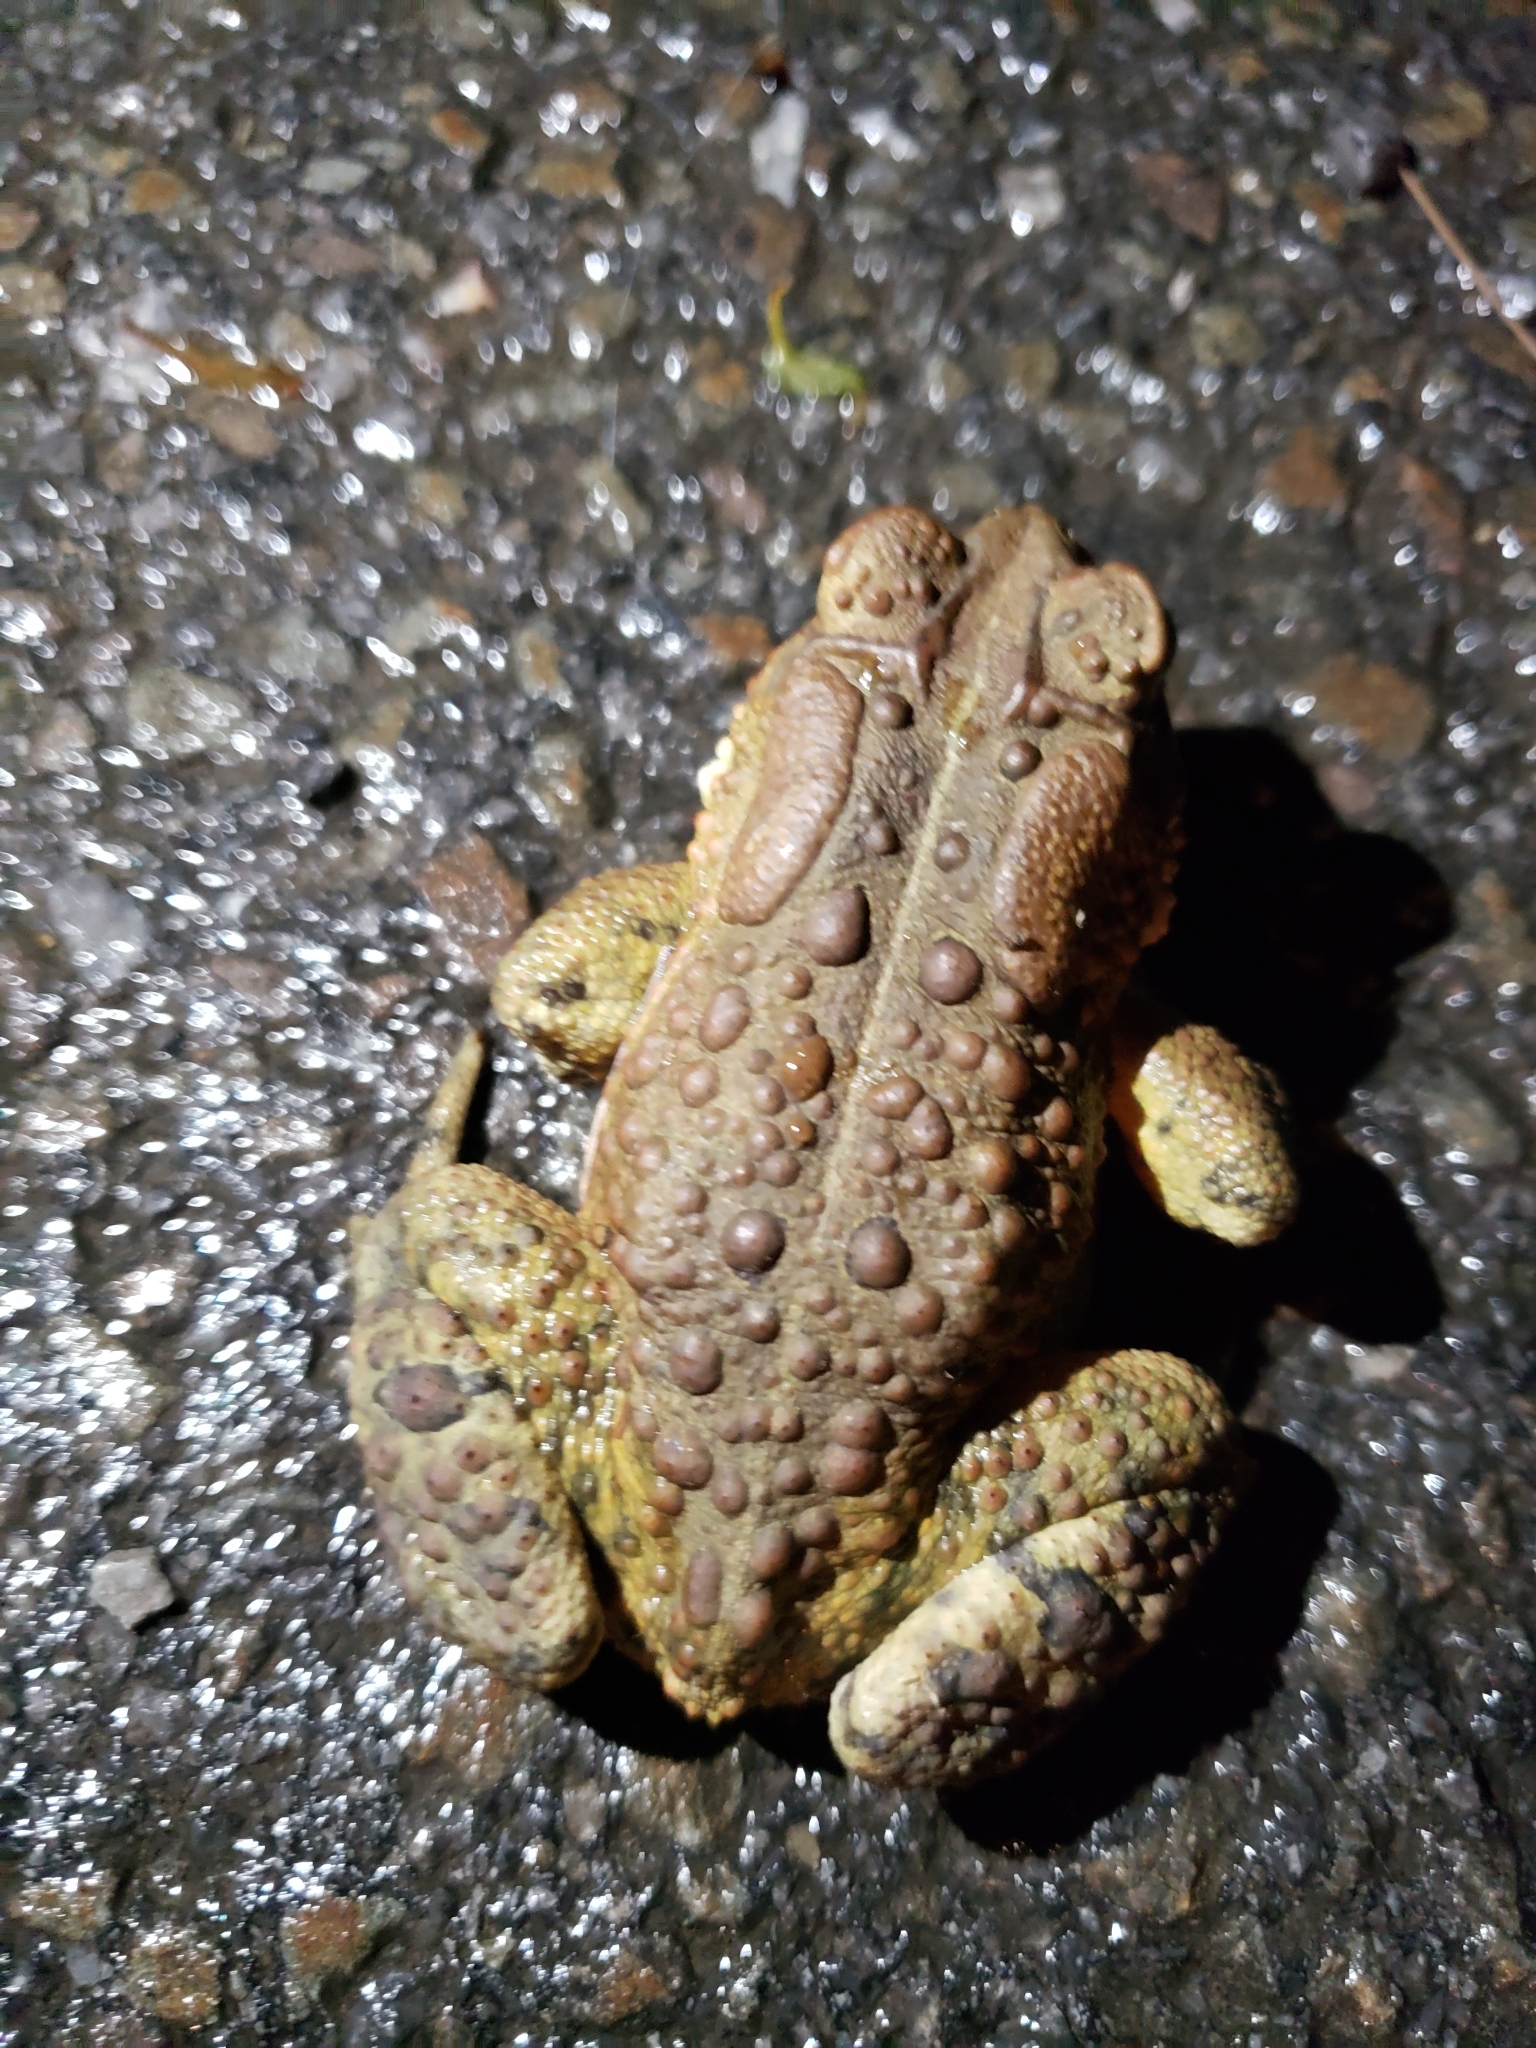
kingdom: Animalia
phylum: Chordata
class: Amphibia
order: Anura
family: Bufonidae
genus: Anaxyrus
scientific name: Anaxyrus americanus
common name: American toad
